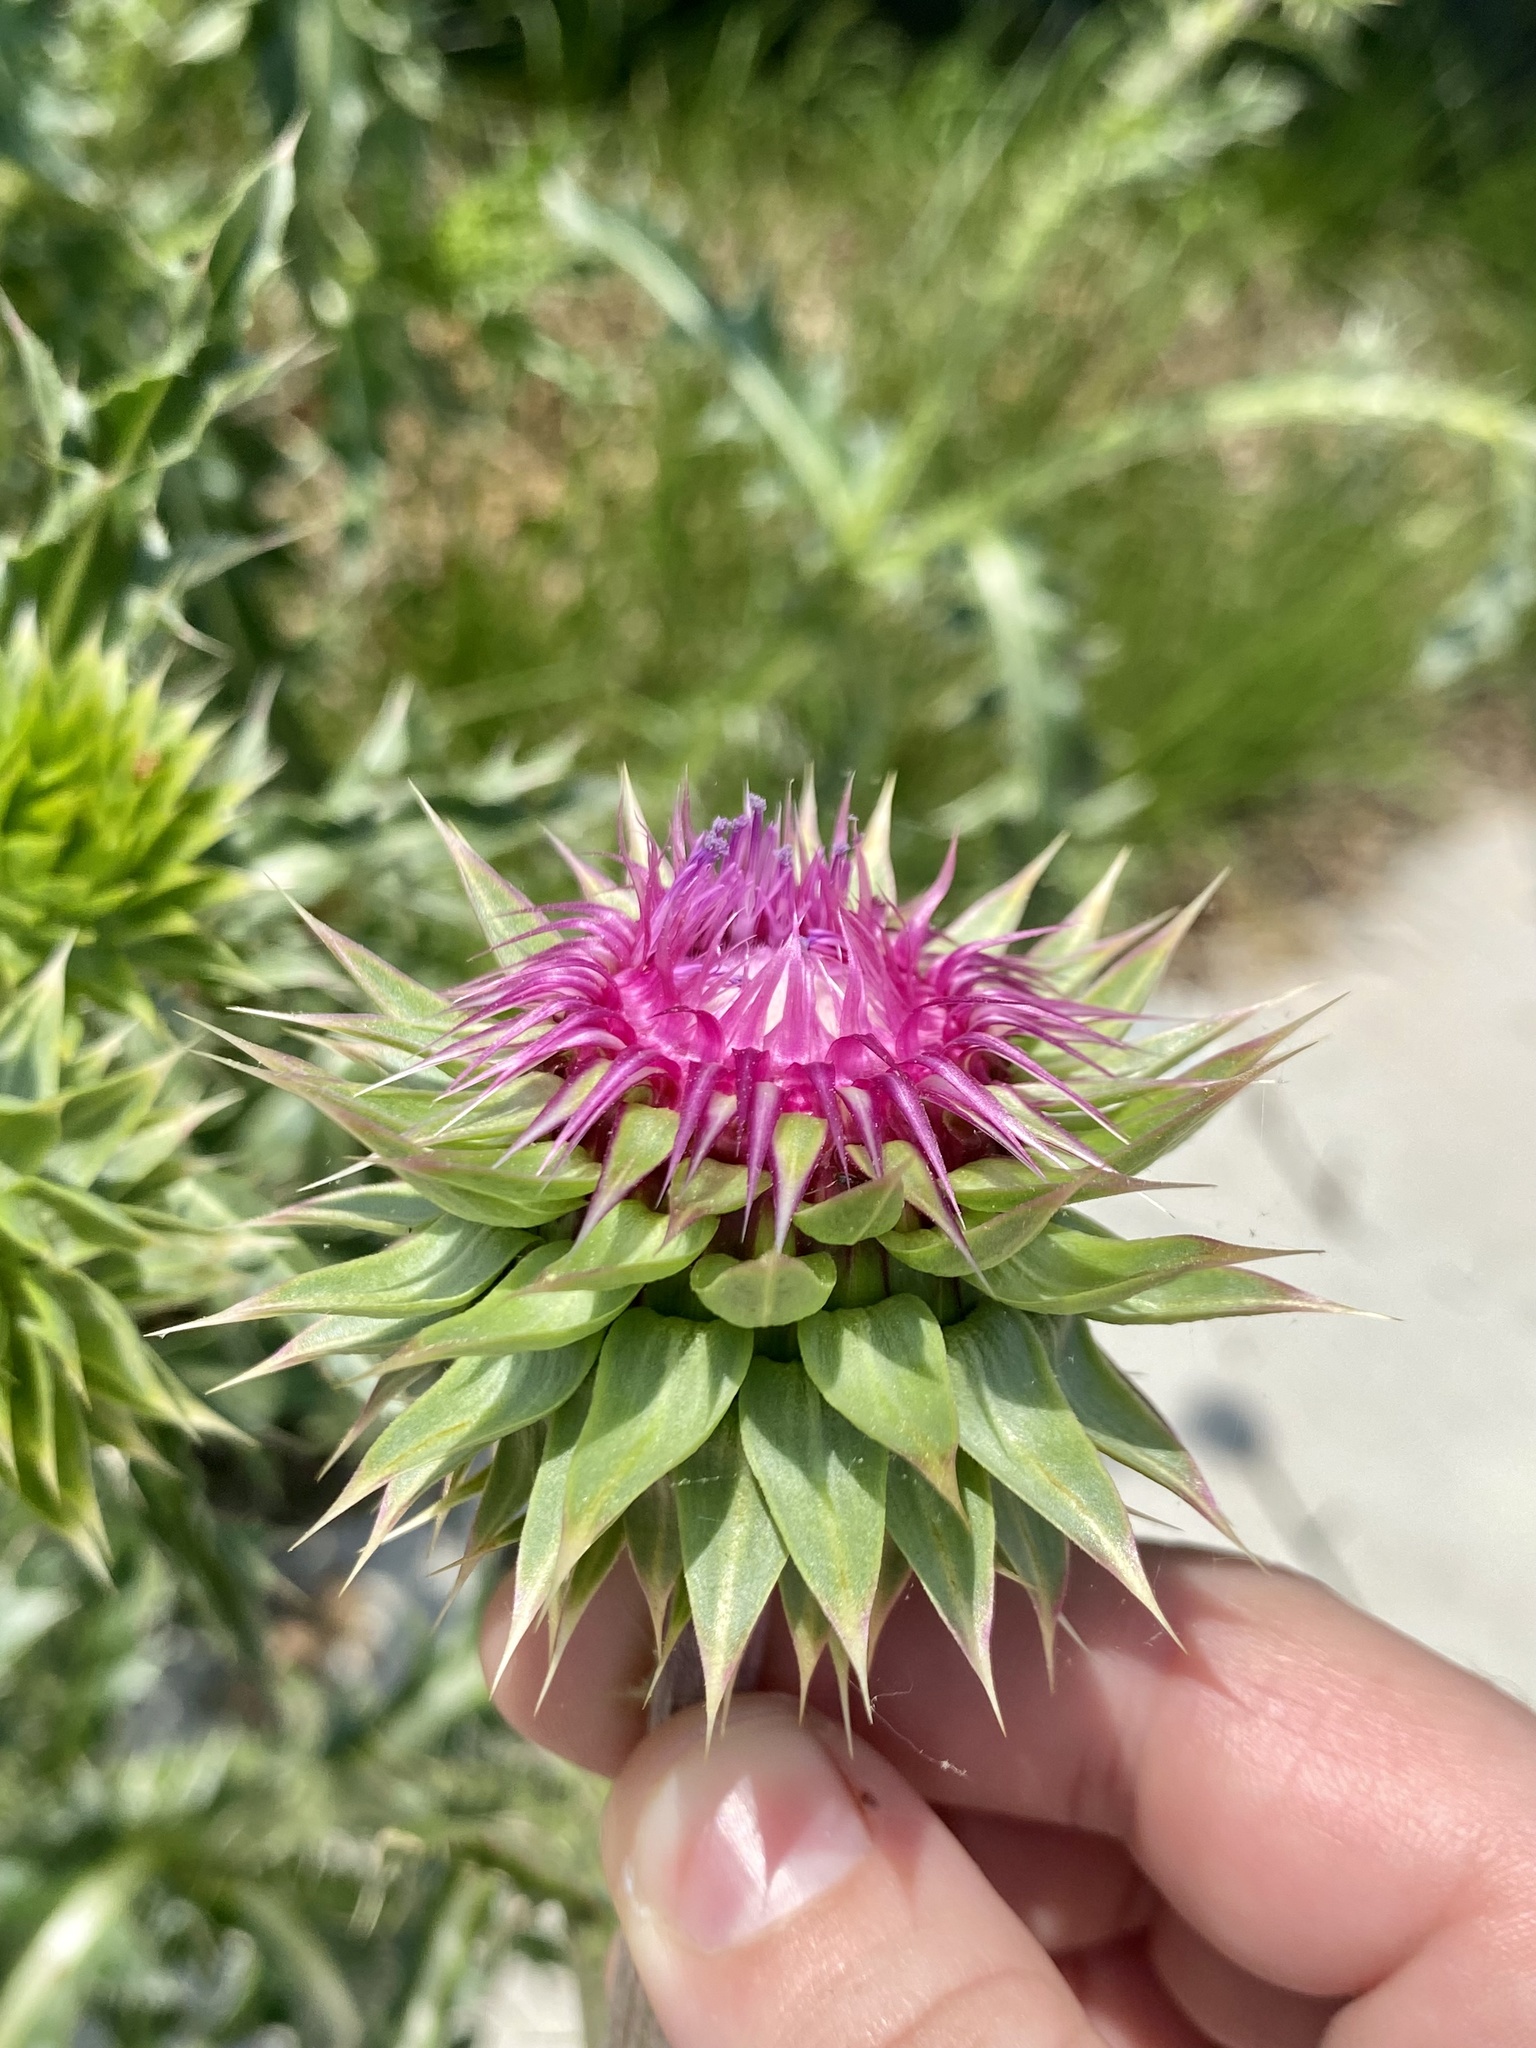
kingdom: Plantae
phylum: Tracheophyta
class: Magnoliopsida
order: Asterales
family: Asteraceae
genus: Carduus
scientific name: Carduus nutans
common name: Musk thistle
